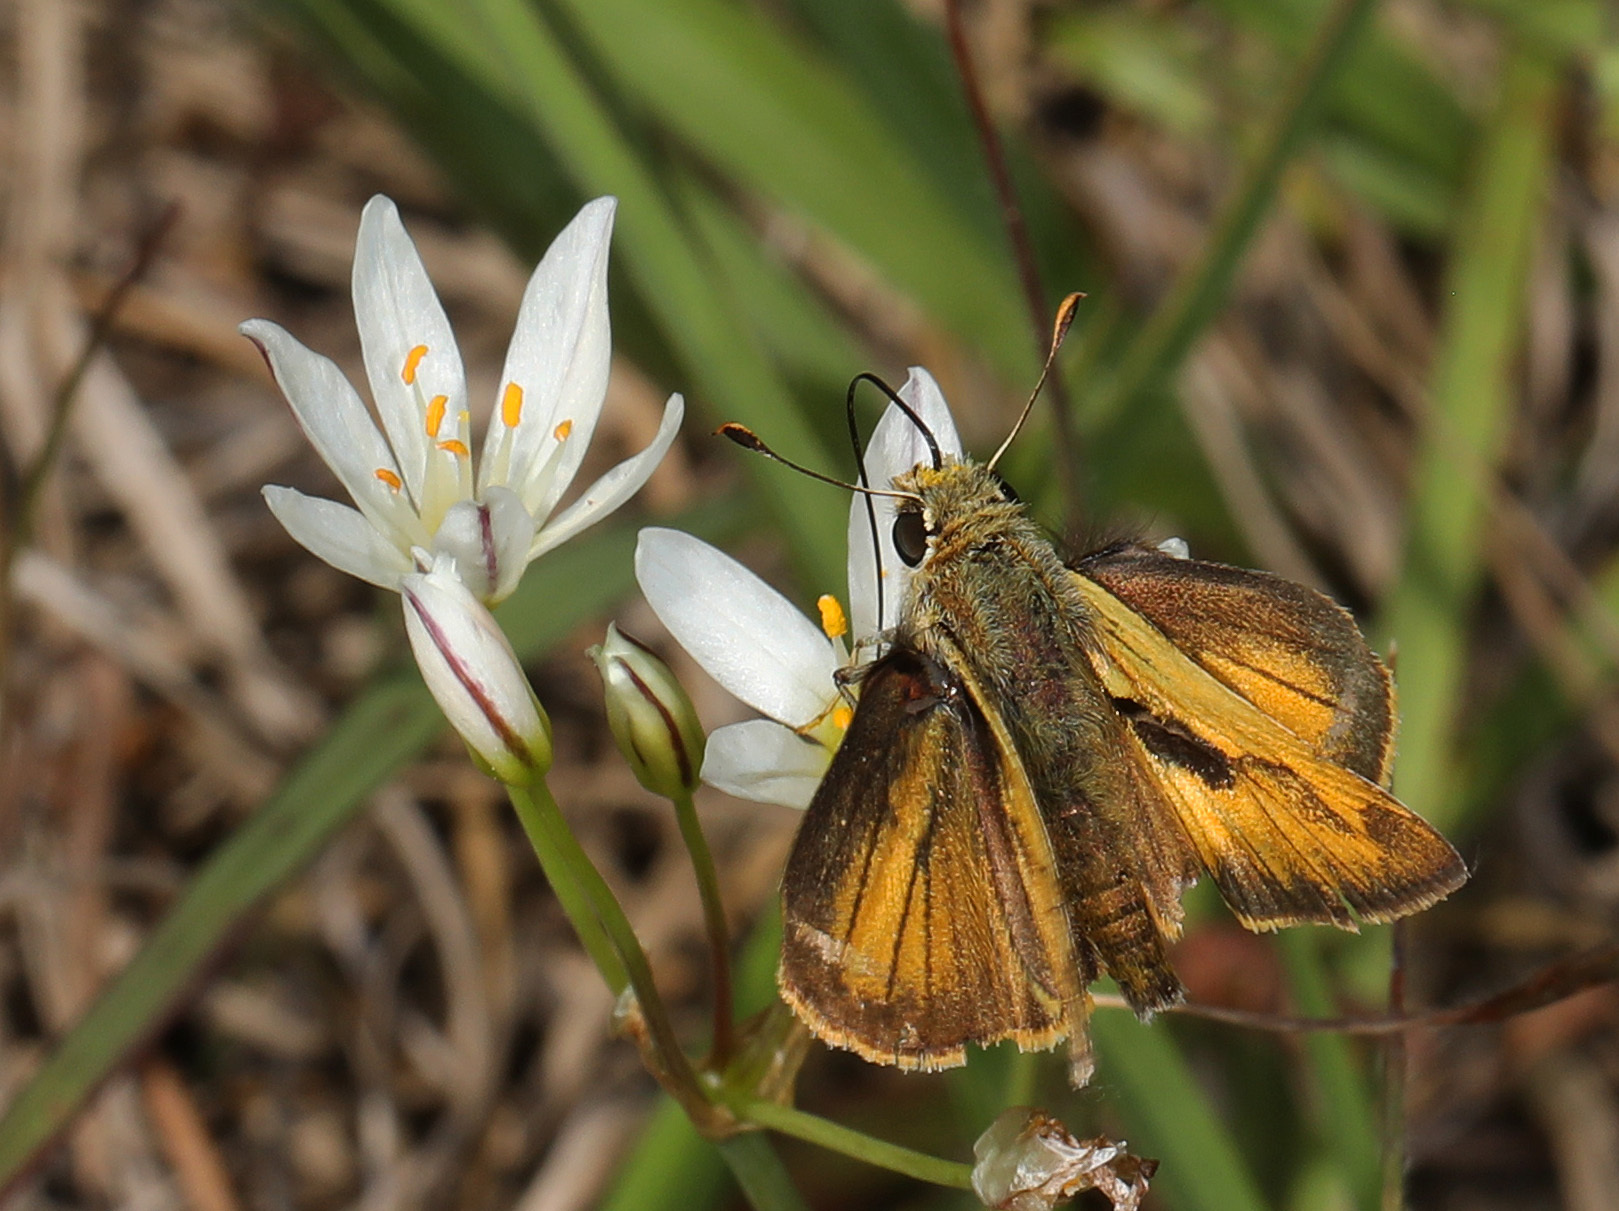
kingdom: Animalia
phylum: Arthropoda
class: Insecta
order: Lepidoptera
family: Hesperiidae
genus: Polites
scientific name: Polites vibex
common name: Whirlabout
